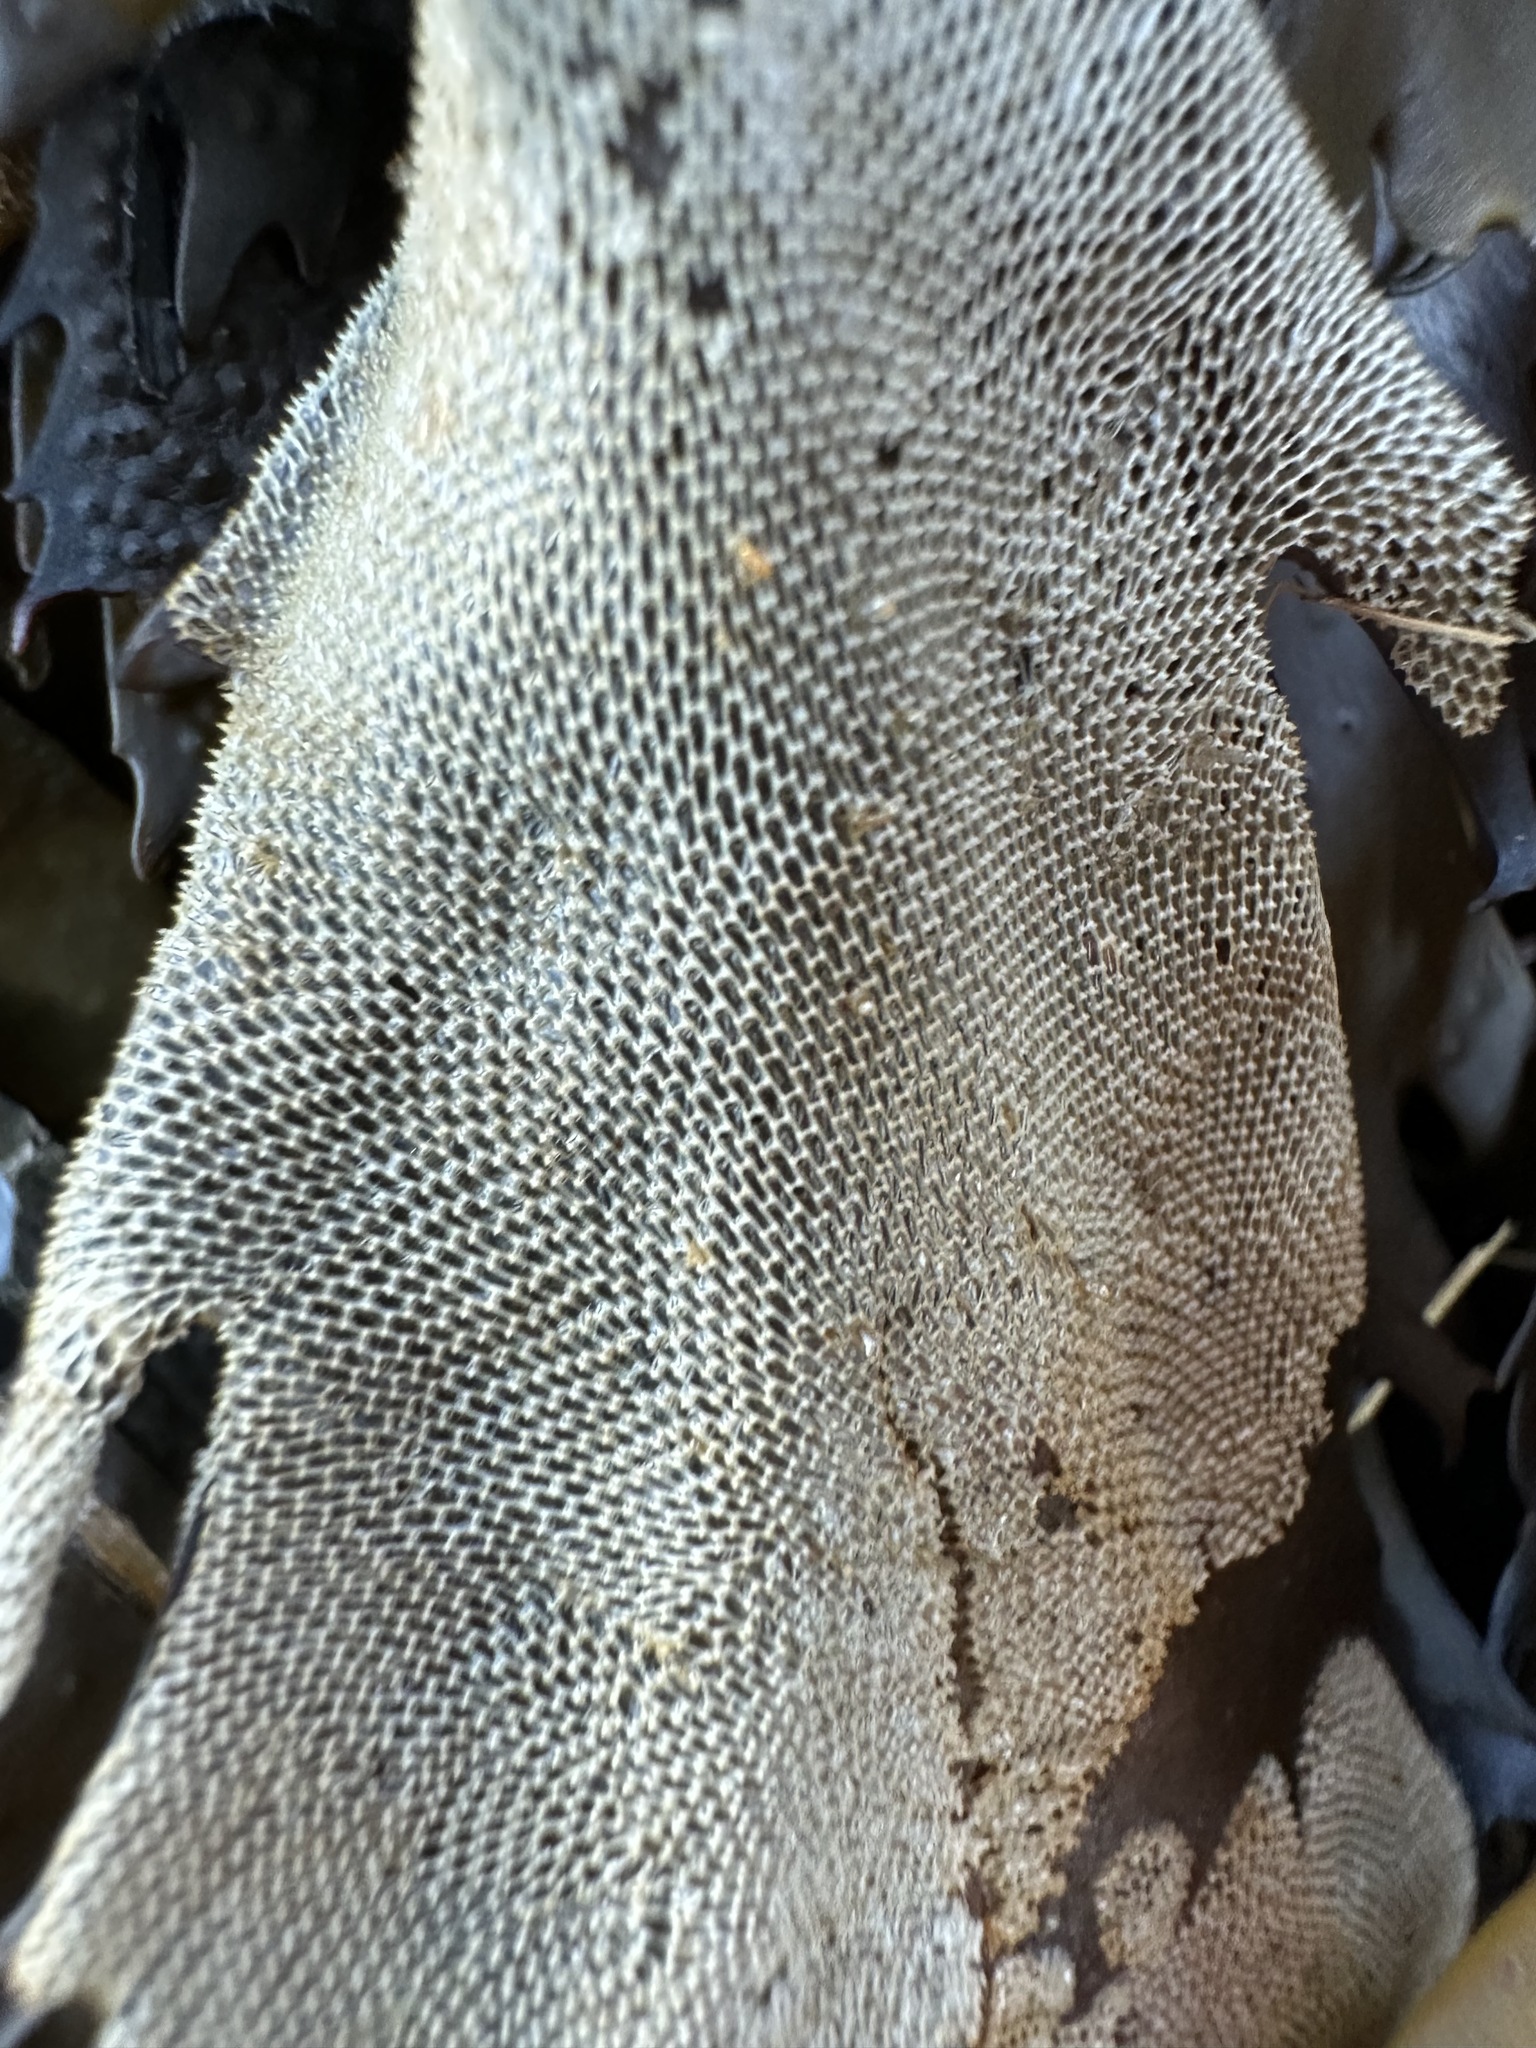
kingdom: Animalia
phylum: Bryozoa
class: Gymnolaemata
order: Cheilostomatida
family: Membraniporidae
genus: Membranipora
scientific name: Membranipora membranacea
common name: Sea mat
